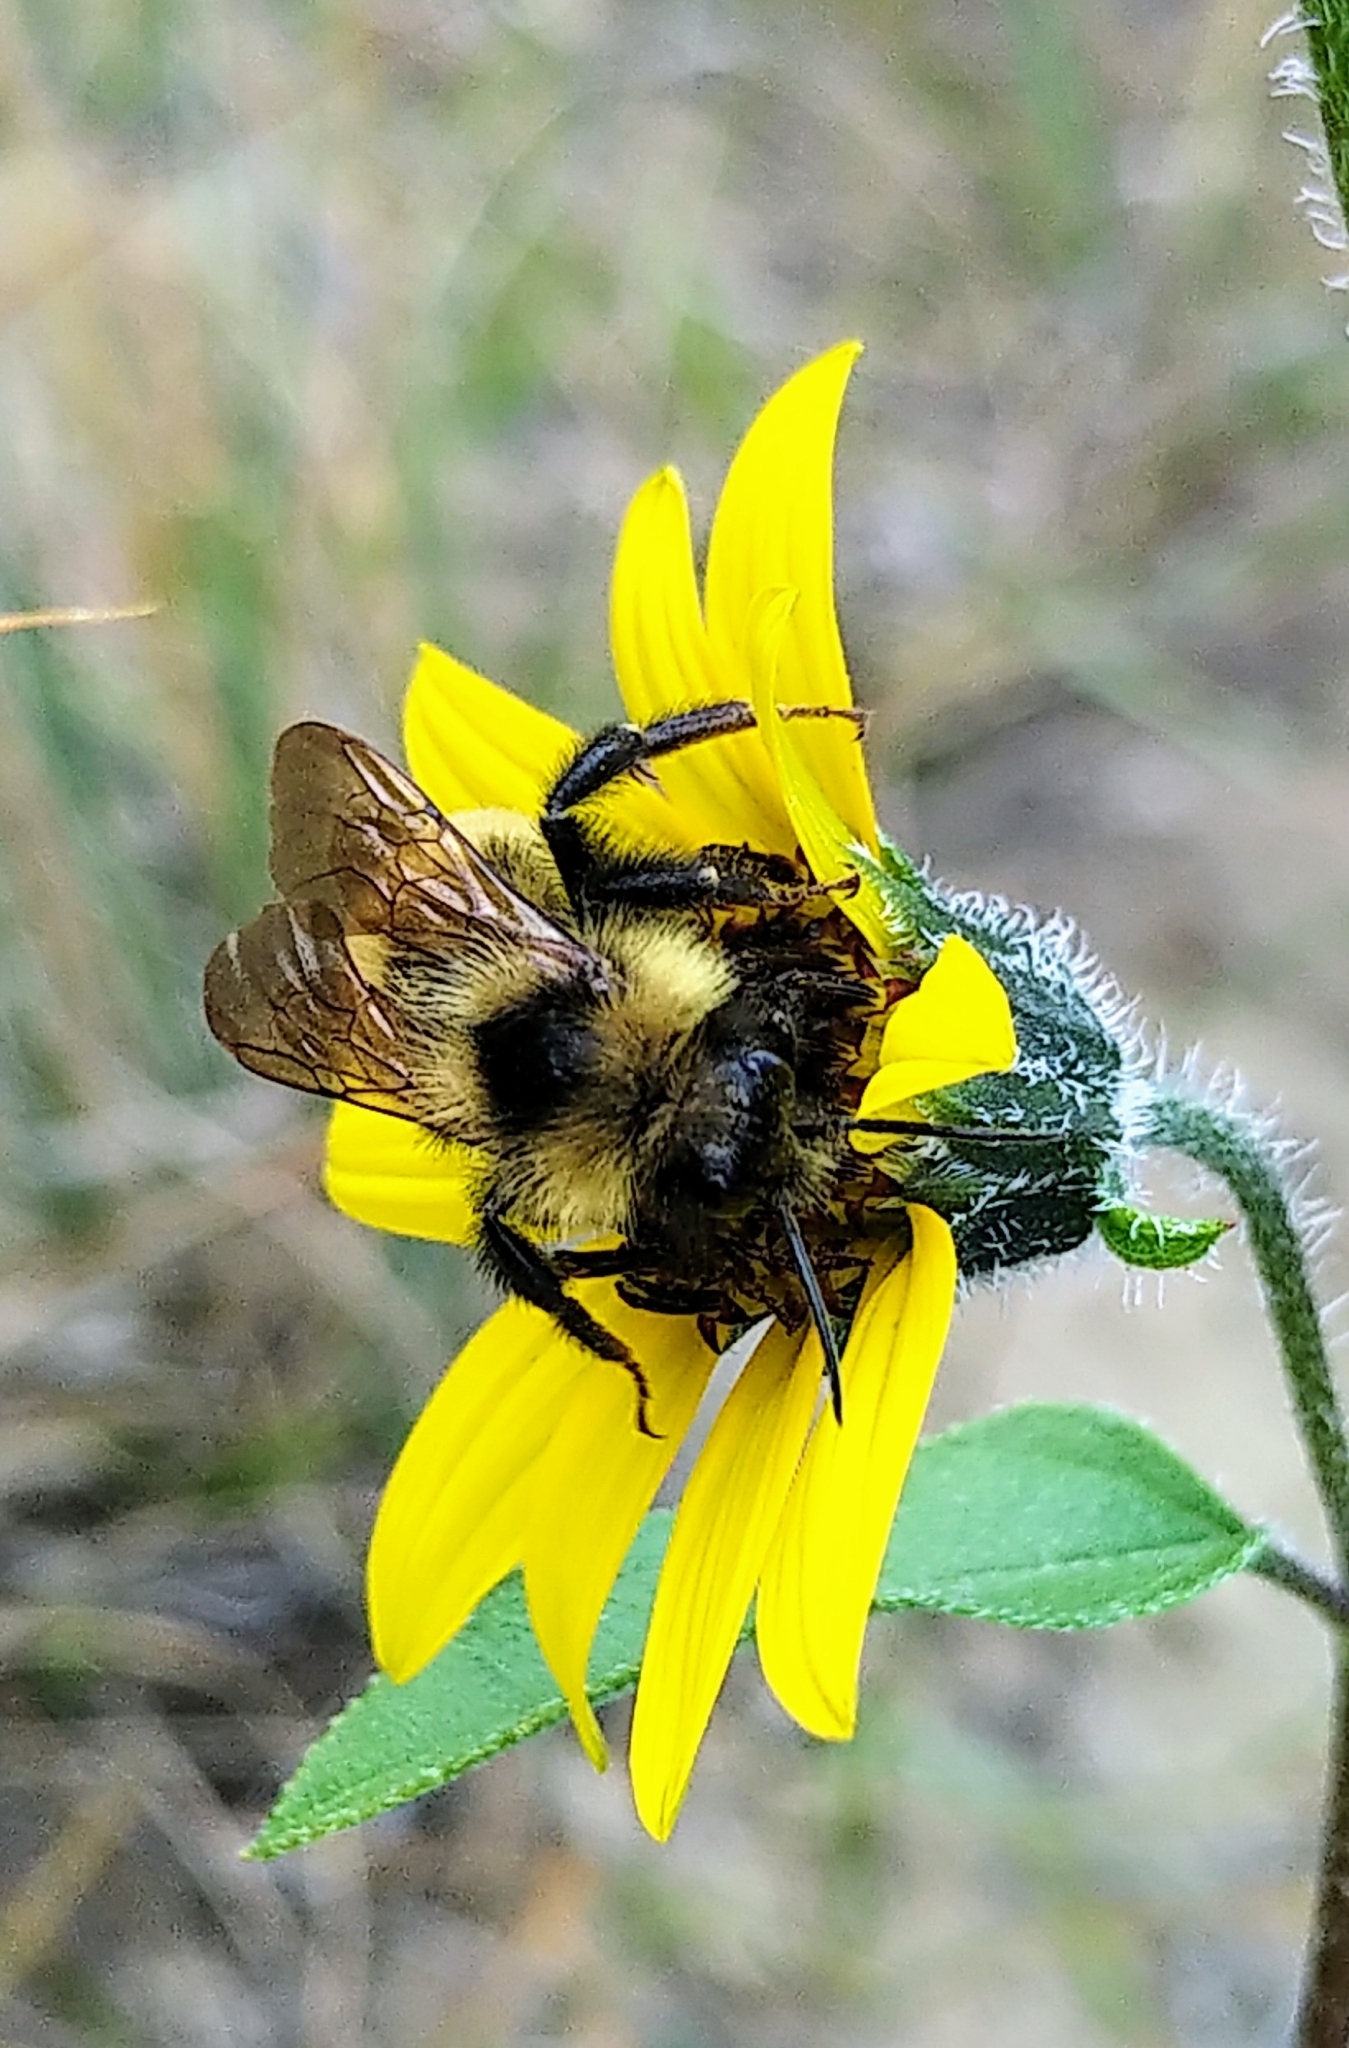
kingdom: Animalia
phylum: Arthropoda
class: Insecta
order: Hymenoptera
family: Apidae
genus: Bombus
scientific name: Bombus insularis
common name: Indiscriminate cuckoo bumble bee
